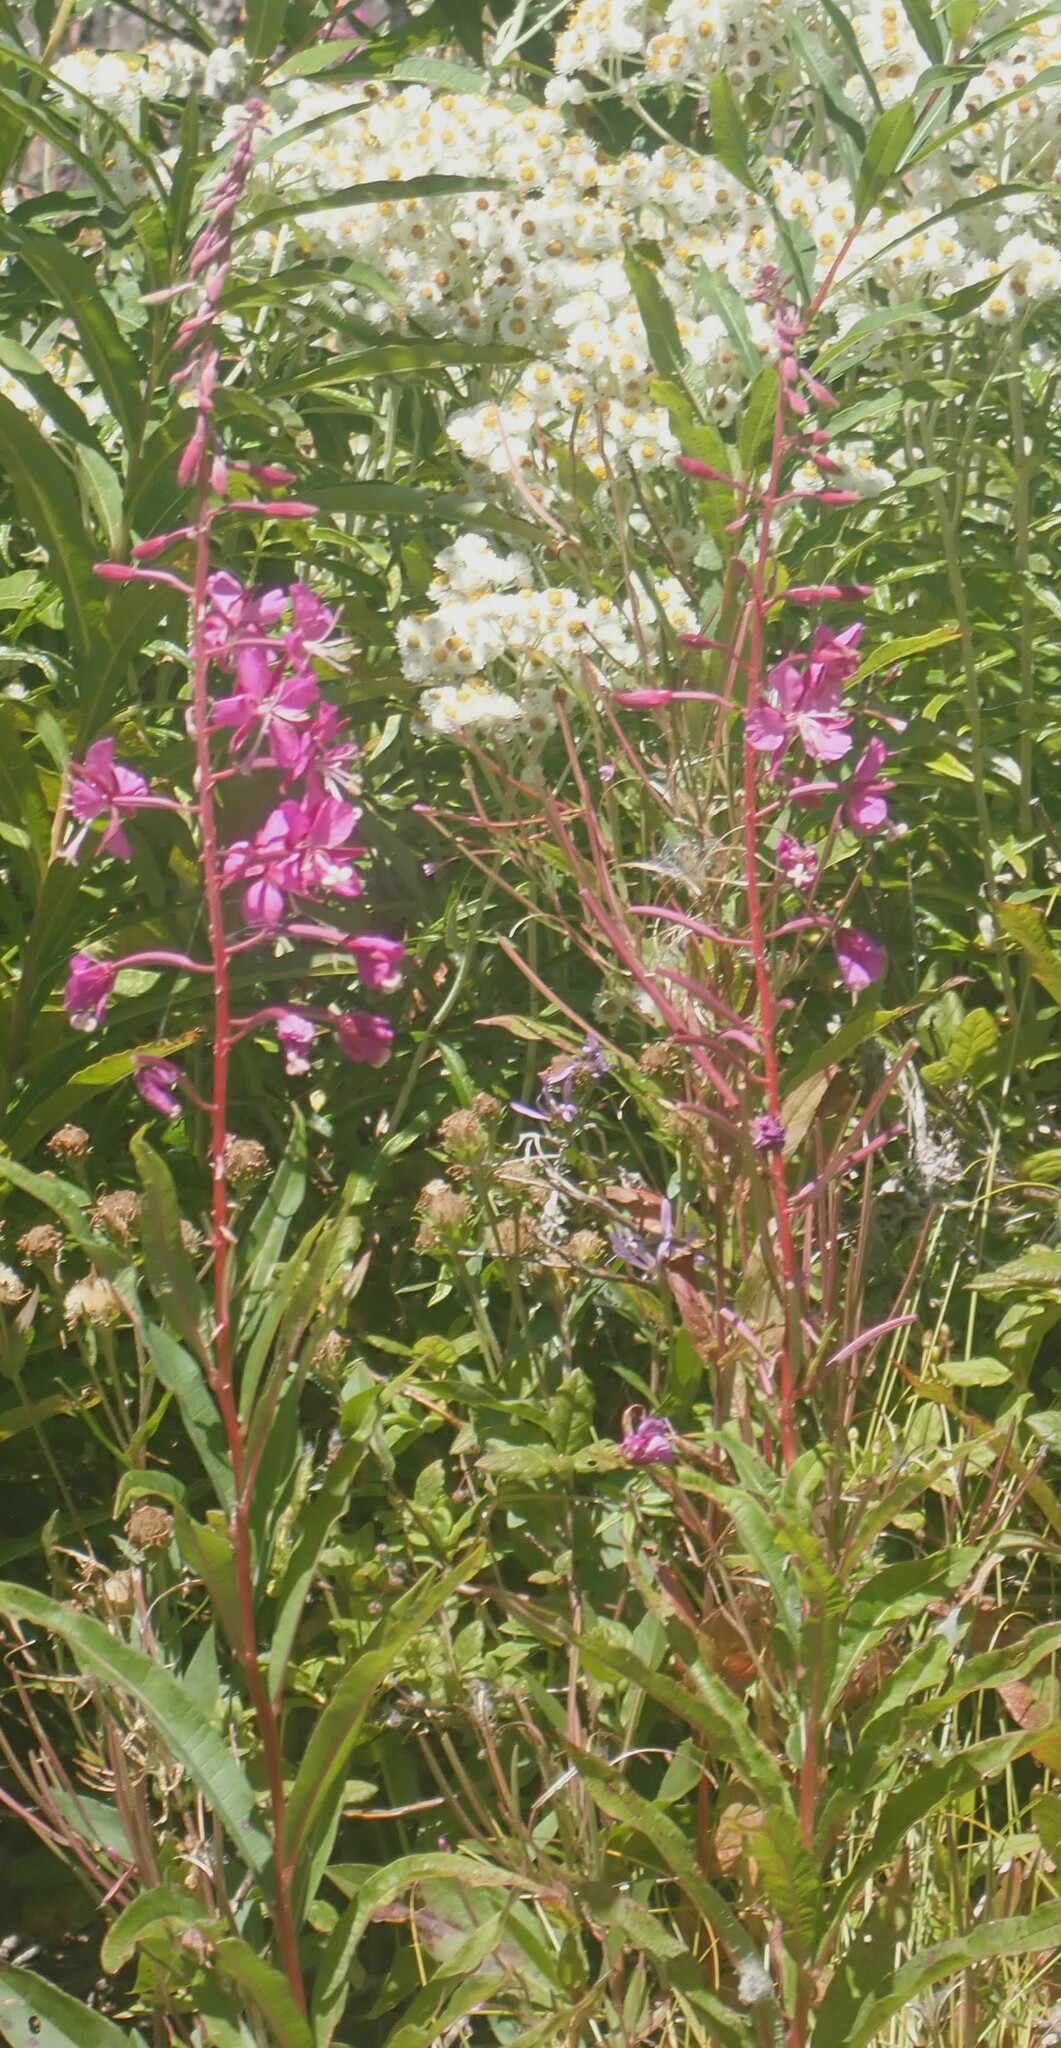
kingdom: Plantae
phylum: Tracheophyta
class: Magnoliopsida
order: Myrtales
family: Onagraceae
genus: Chamaenerion
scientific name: Chamaenerion angustifolium
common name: Fireweed
